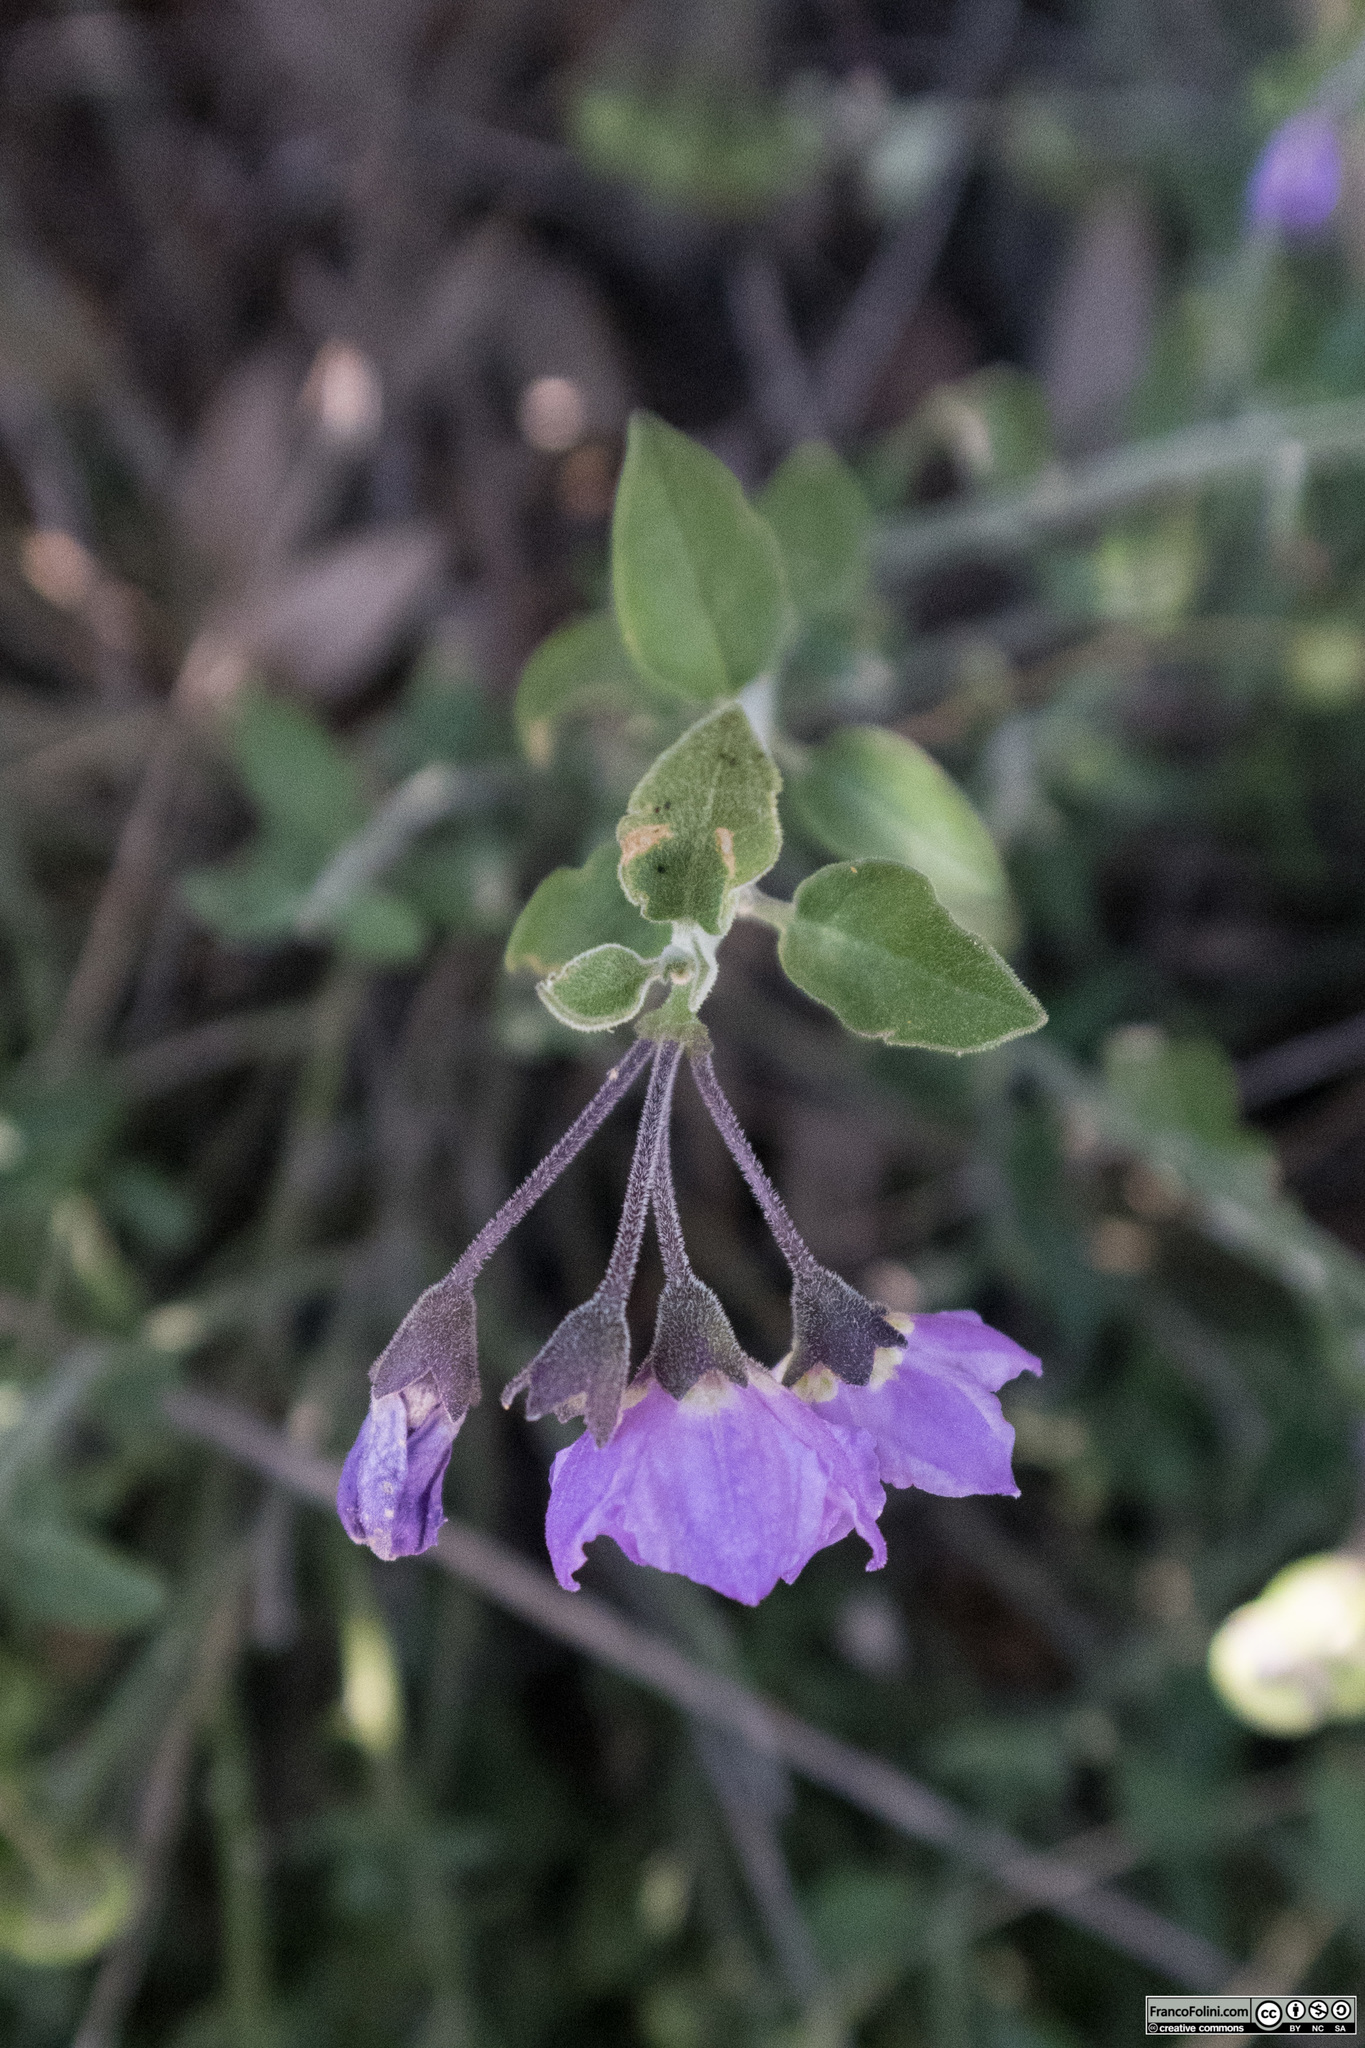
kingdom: Plantae
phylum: Tracheophyta
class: Magnoliopsida
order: Solanales
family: Solanaceae
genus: Solanum
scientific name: Solanum umbelliferum
